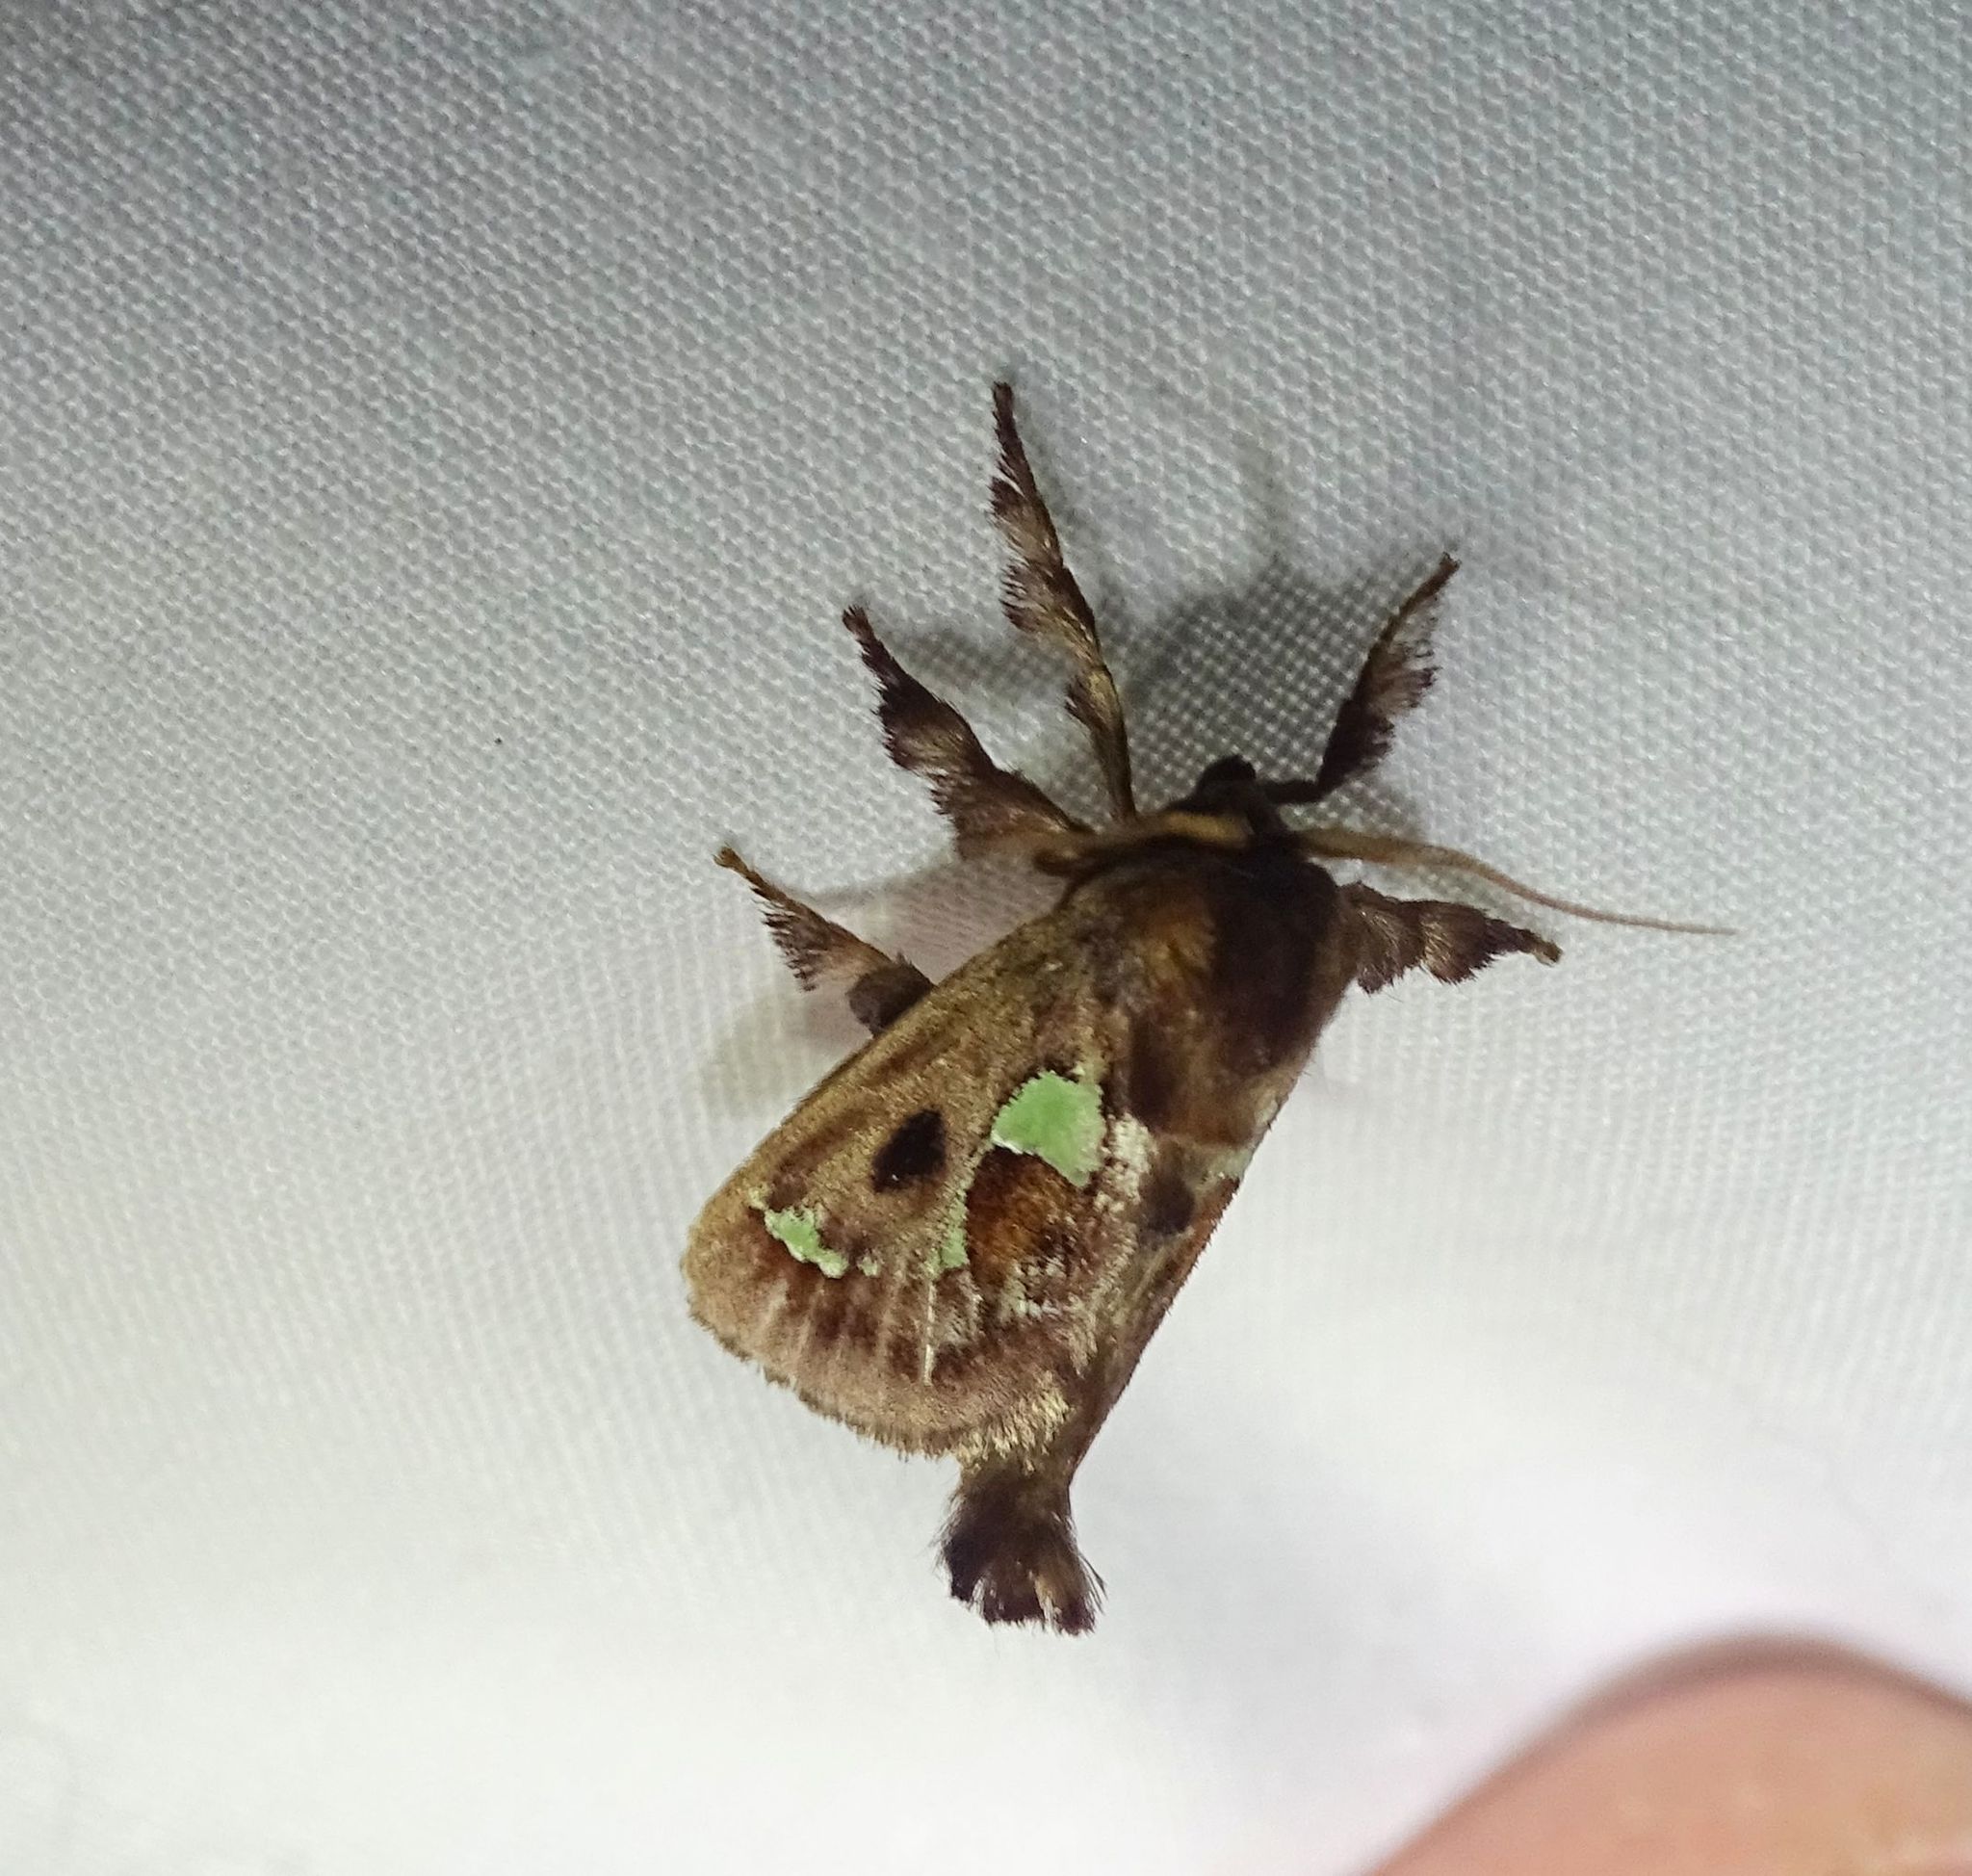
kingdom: Animalia
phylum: Arthropoda
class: Insecta
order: Lepidoptera
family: Limacodidae
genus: Euclea
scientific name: Euclea delphinii
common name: Spiny oak-slug moth
